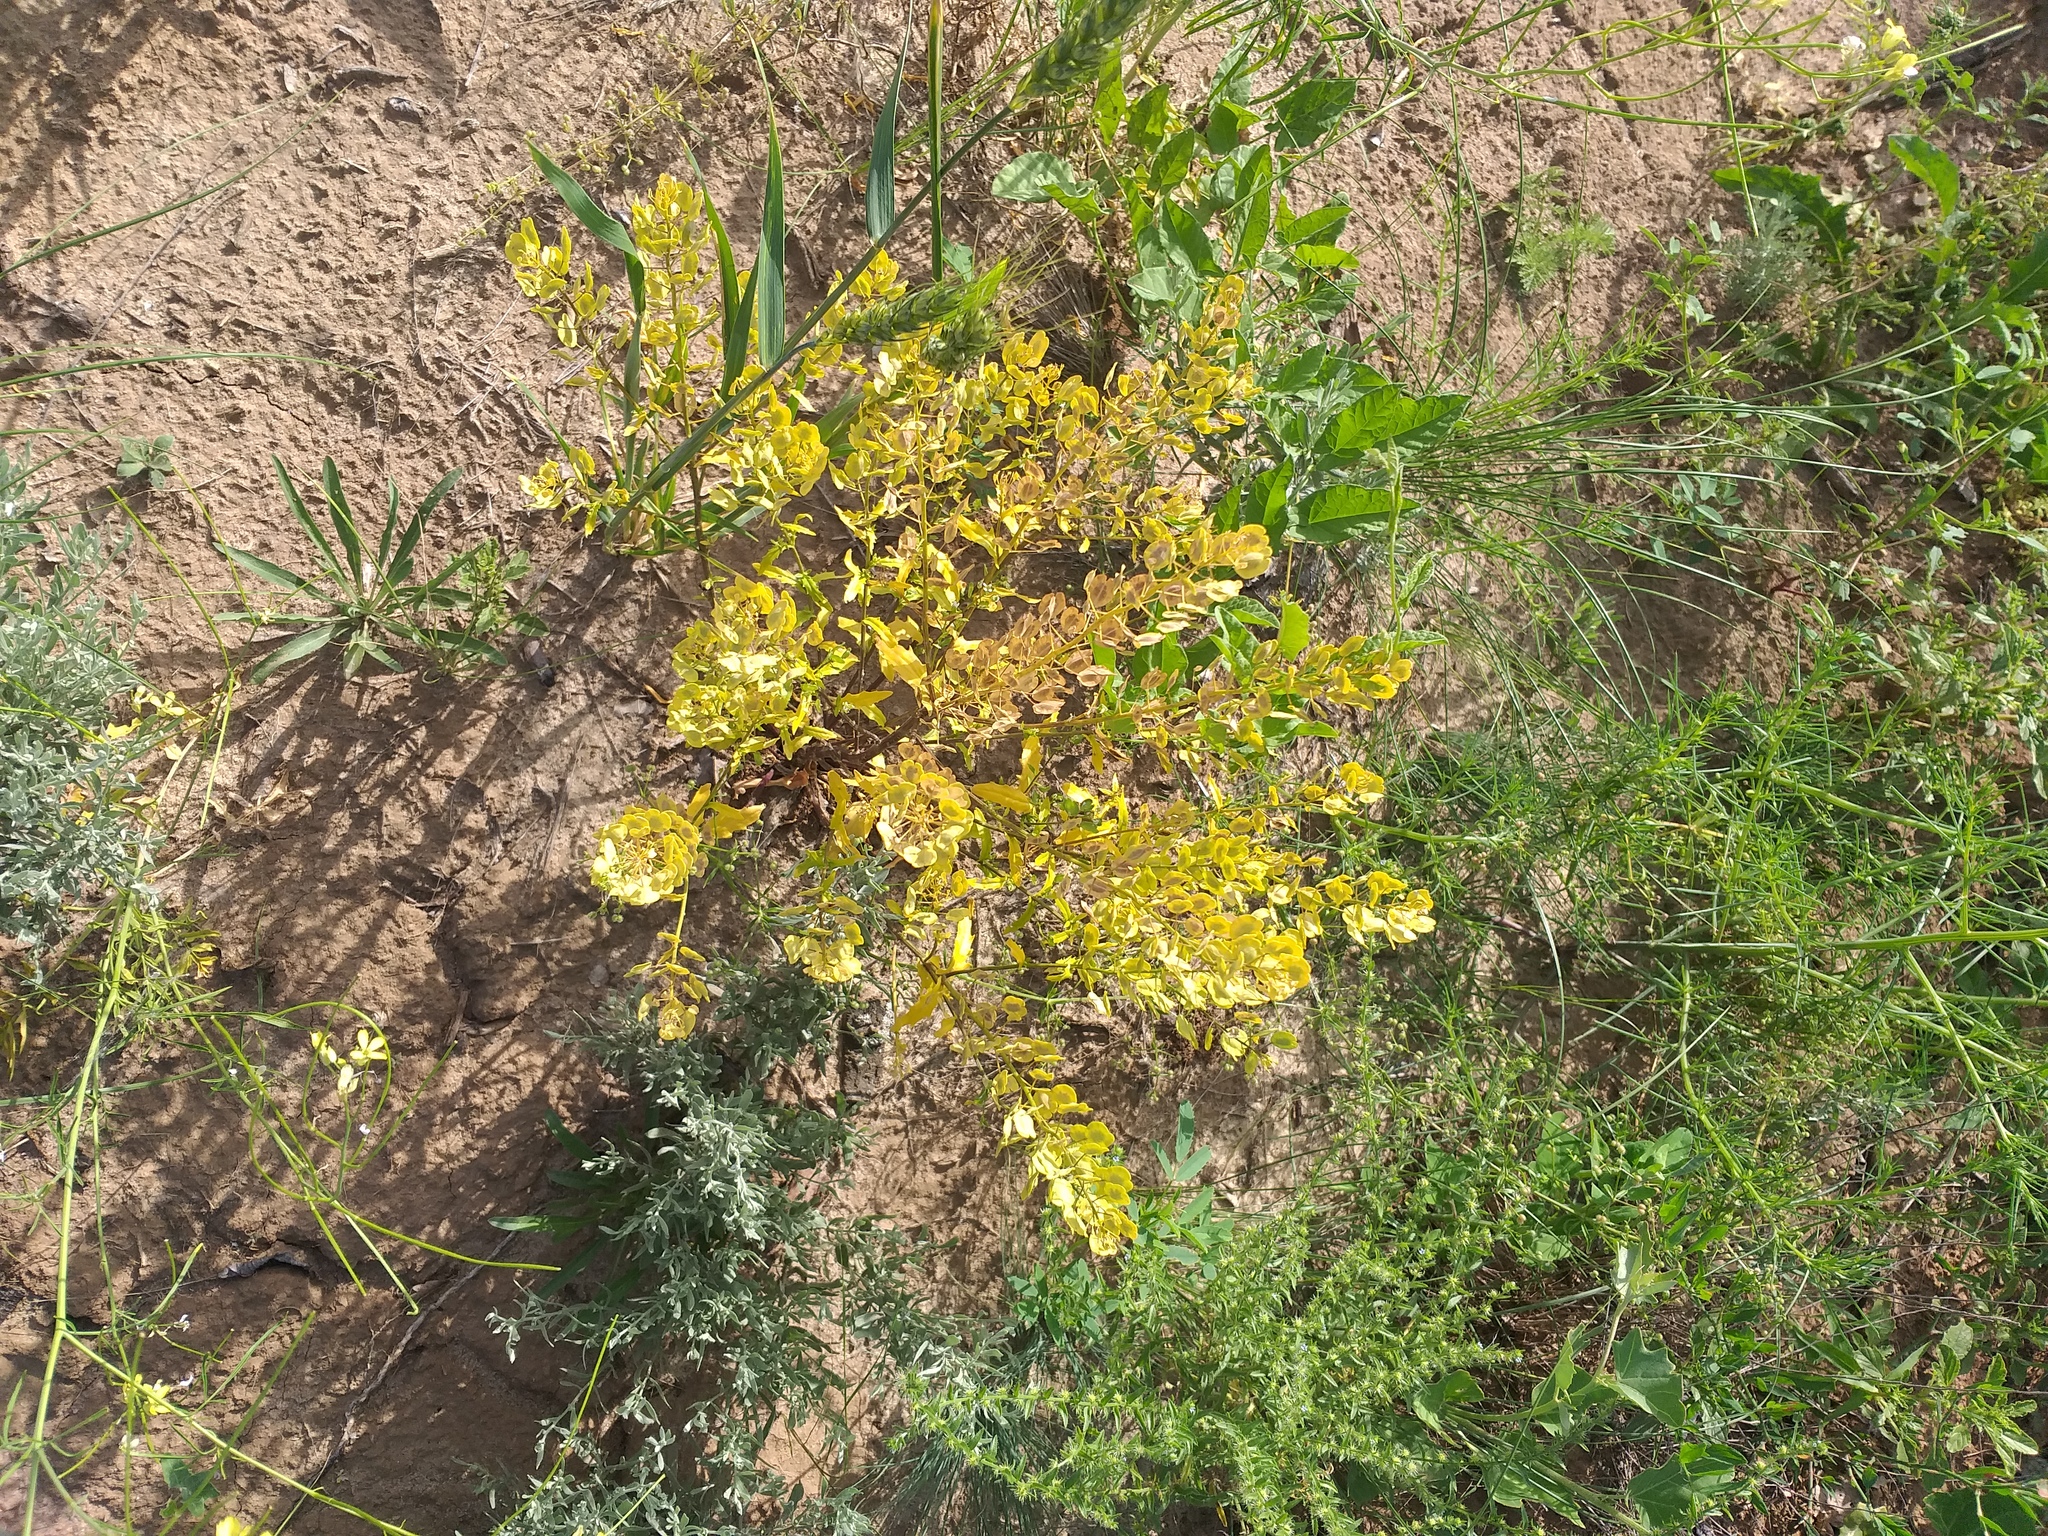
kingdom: Plantae
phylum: Tracheophyta
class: Magnoliopsida
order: Brassicales
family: Brassicaceae
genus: Thlaspi
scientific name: Thlaspi arvense
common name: Field pennycress
